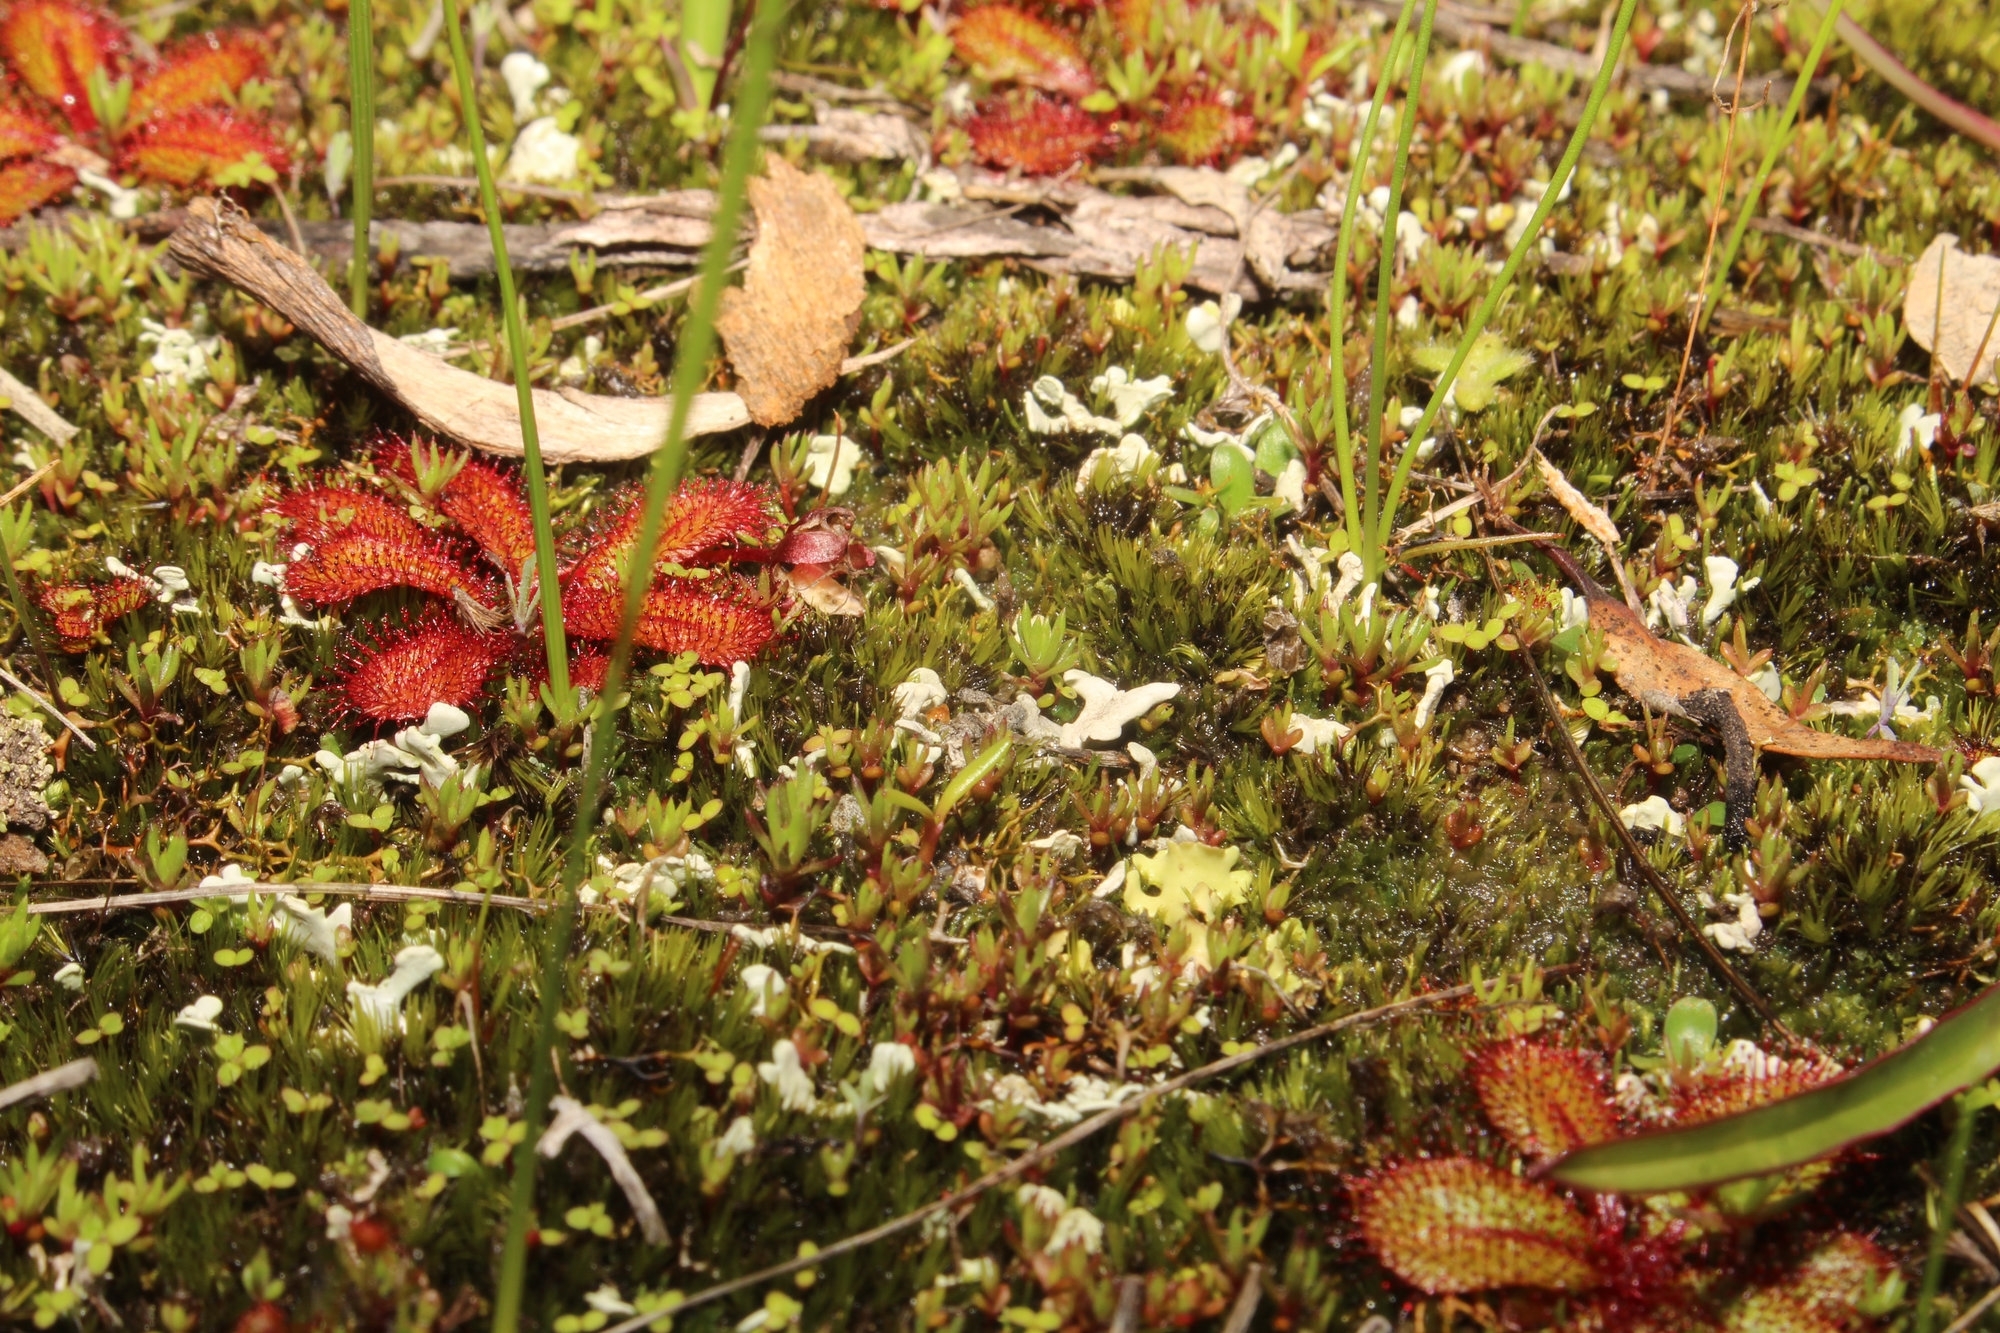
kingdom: Plantae
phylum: Tracheophyta
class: Magnoliopsida
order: Caryophyllales
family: Droseraceae
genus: Drosera
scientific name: Drosera tubaestylis
